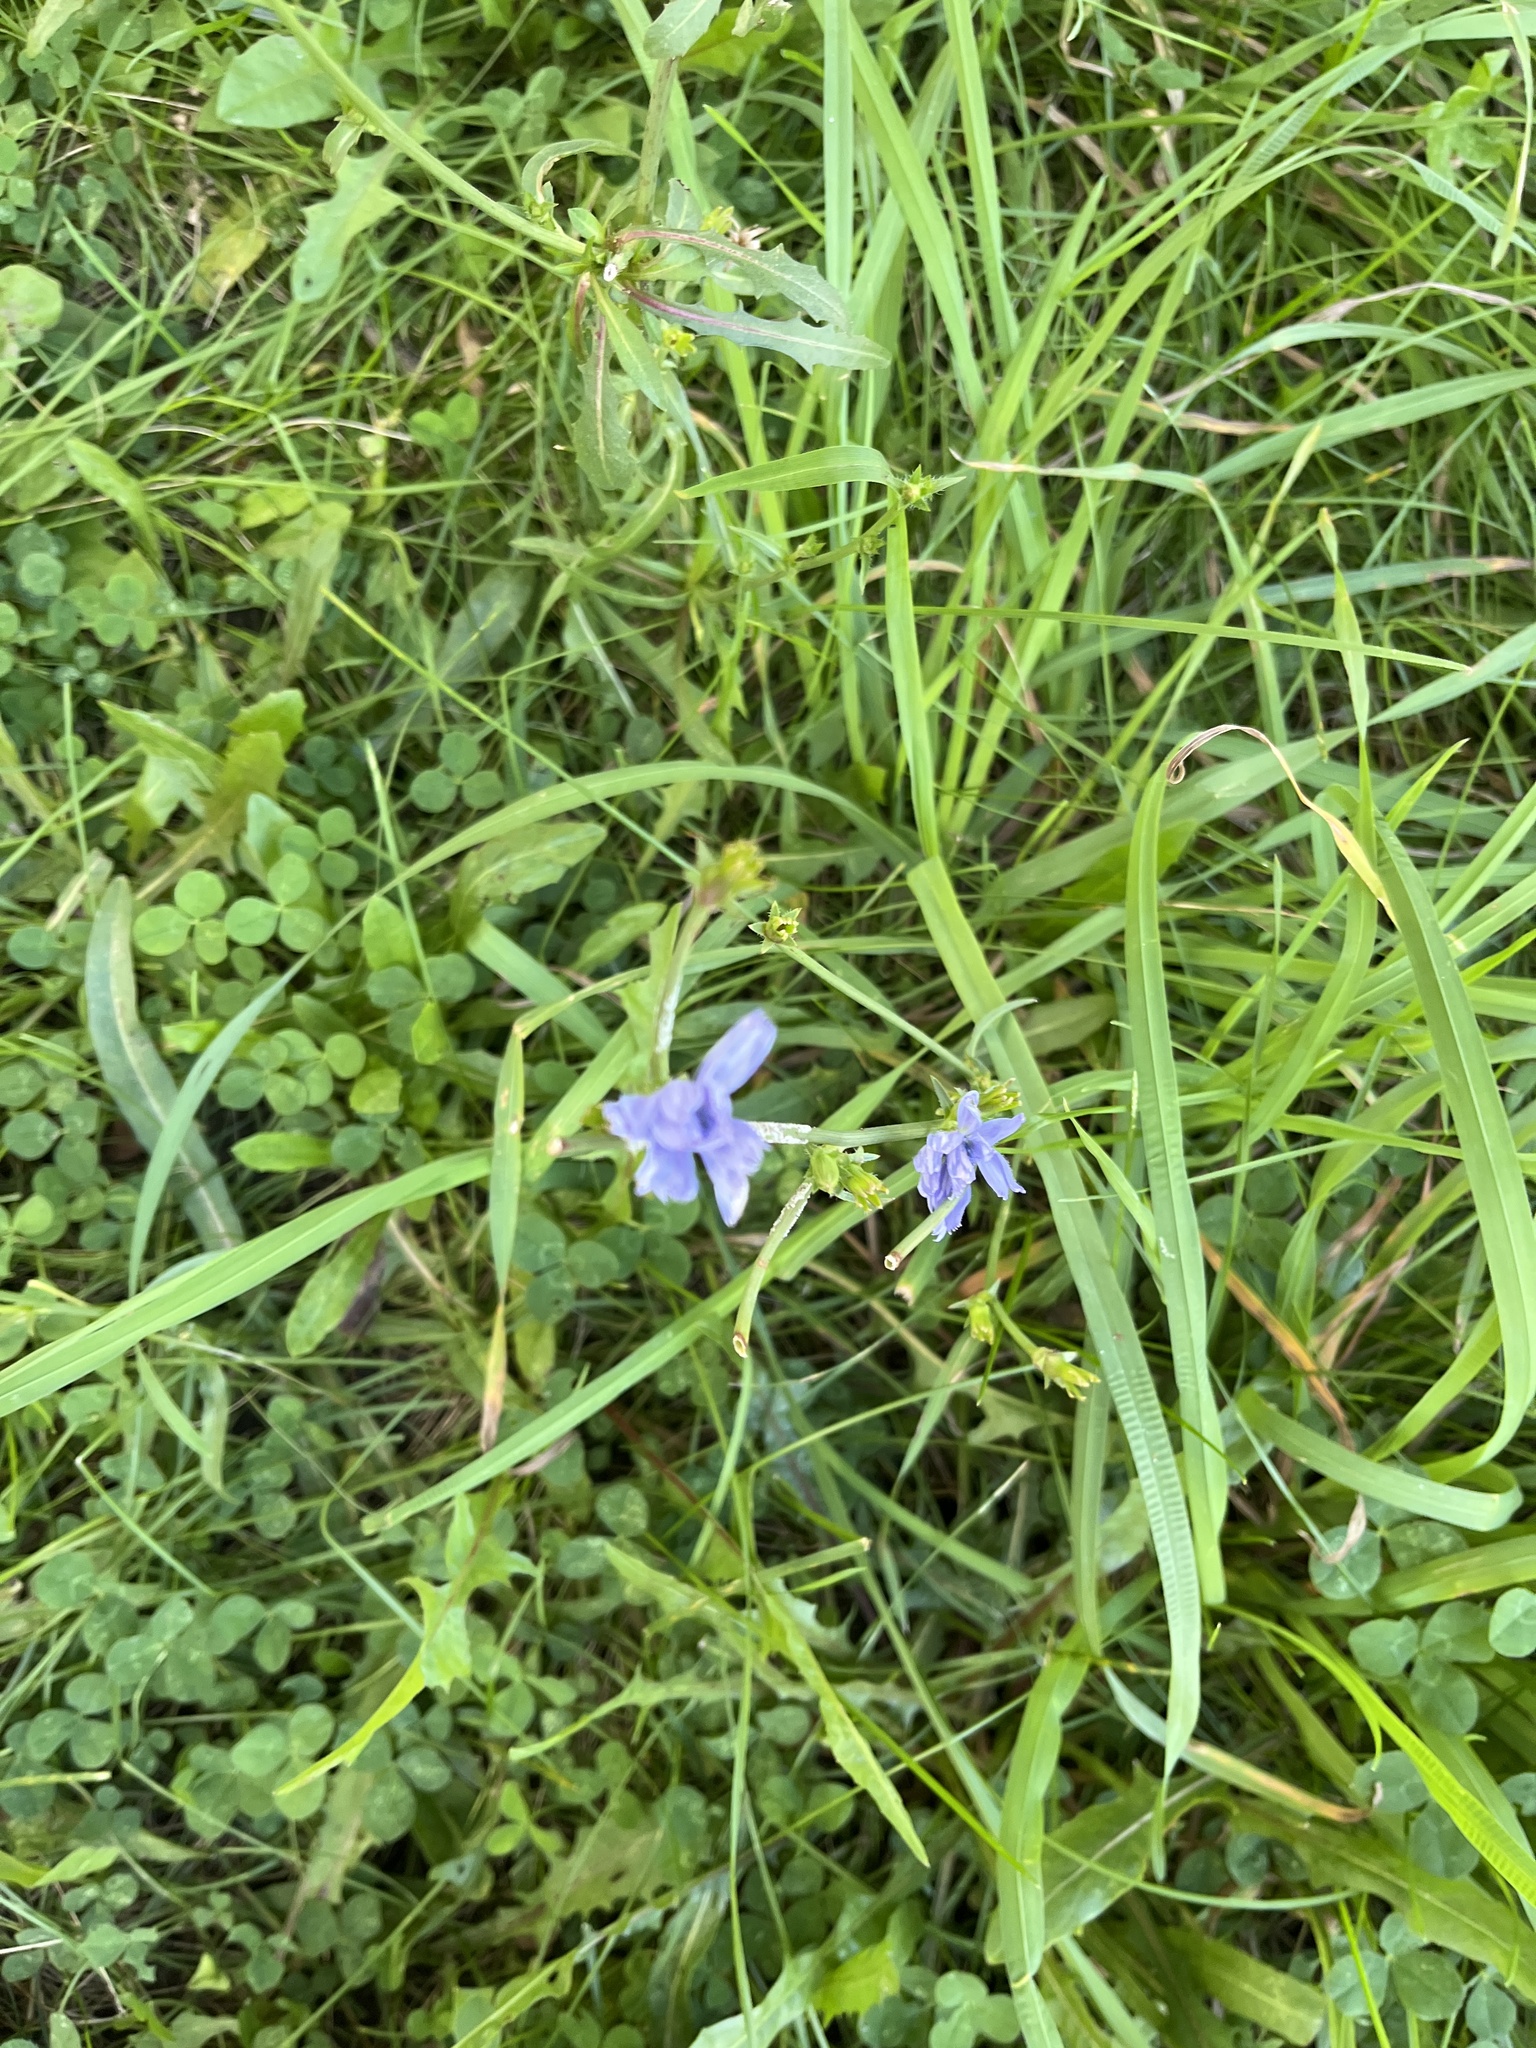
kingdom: Plantae
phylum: Tracheophyta
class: Magnoliopsida
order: Asterales
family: Asteraceae
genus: Cichorium
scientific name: Cichorium intybus
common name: Chicory
